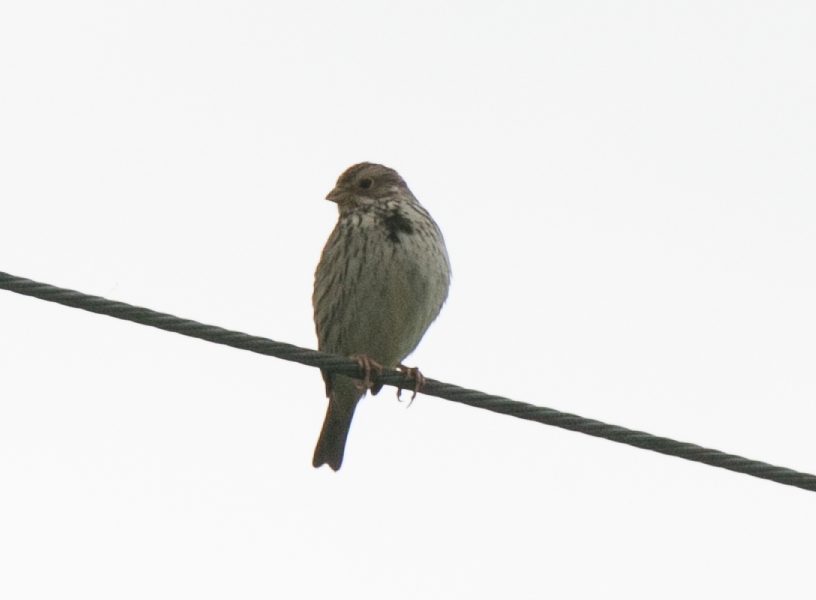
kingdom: Animalia
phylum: Chordata
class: Aves
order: Passeriformes
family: Emberizidae
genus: Emberiza
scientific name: Emberiza calandra
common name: Corn bunting
